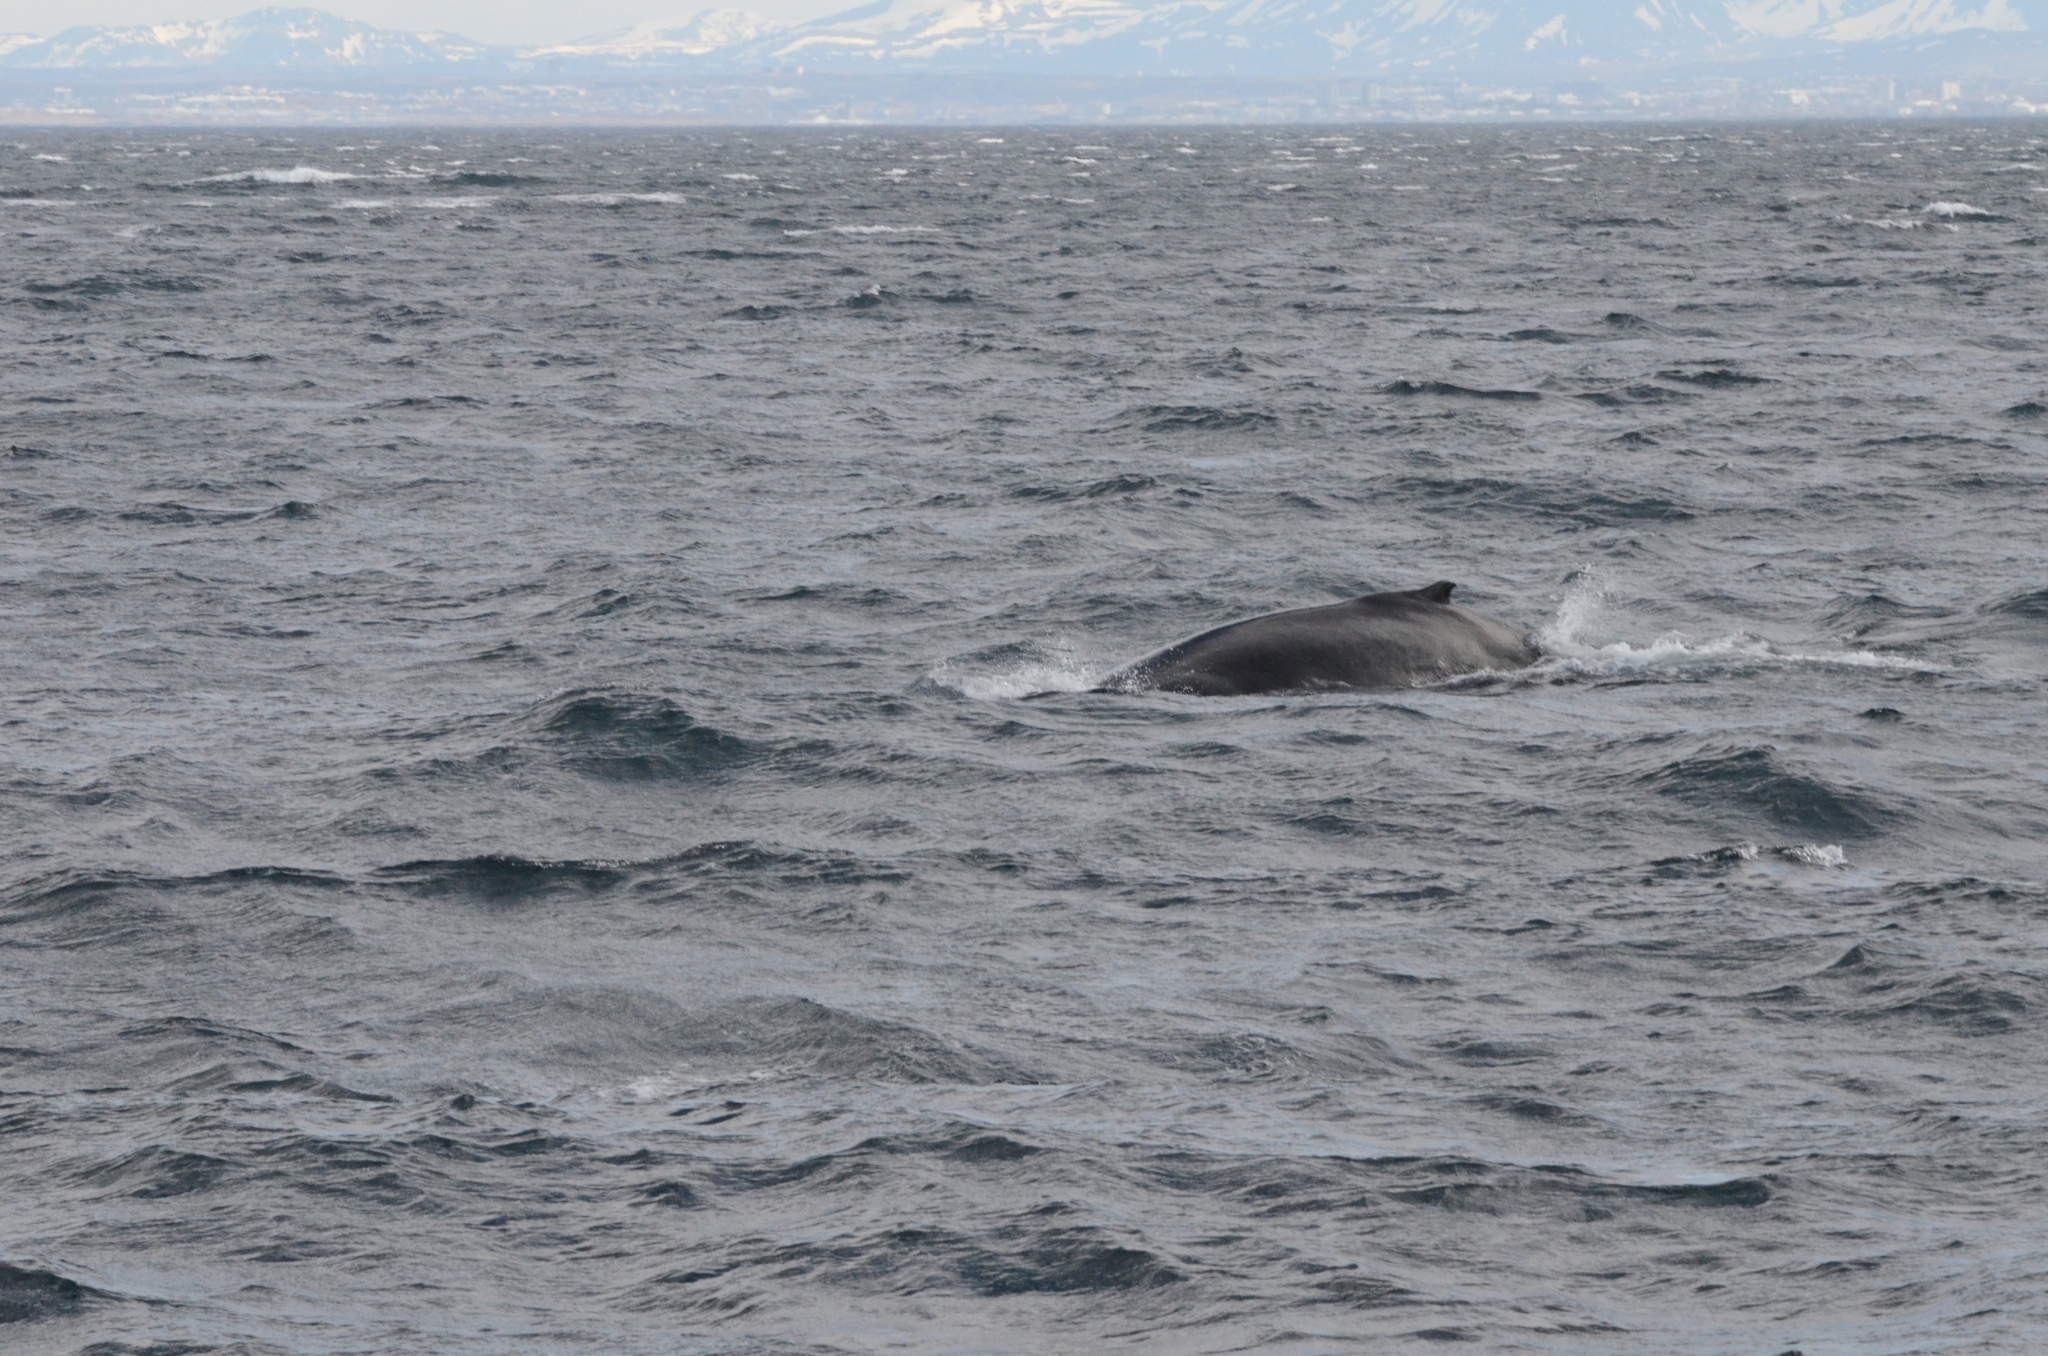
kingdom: Animalia
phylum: Chordata
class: Mammalia
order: Cetacea
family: Balaenopteridae
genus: Megaptera
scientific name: Megaptera novaeangliae
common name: Humpback whale
